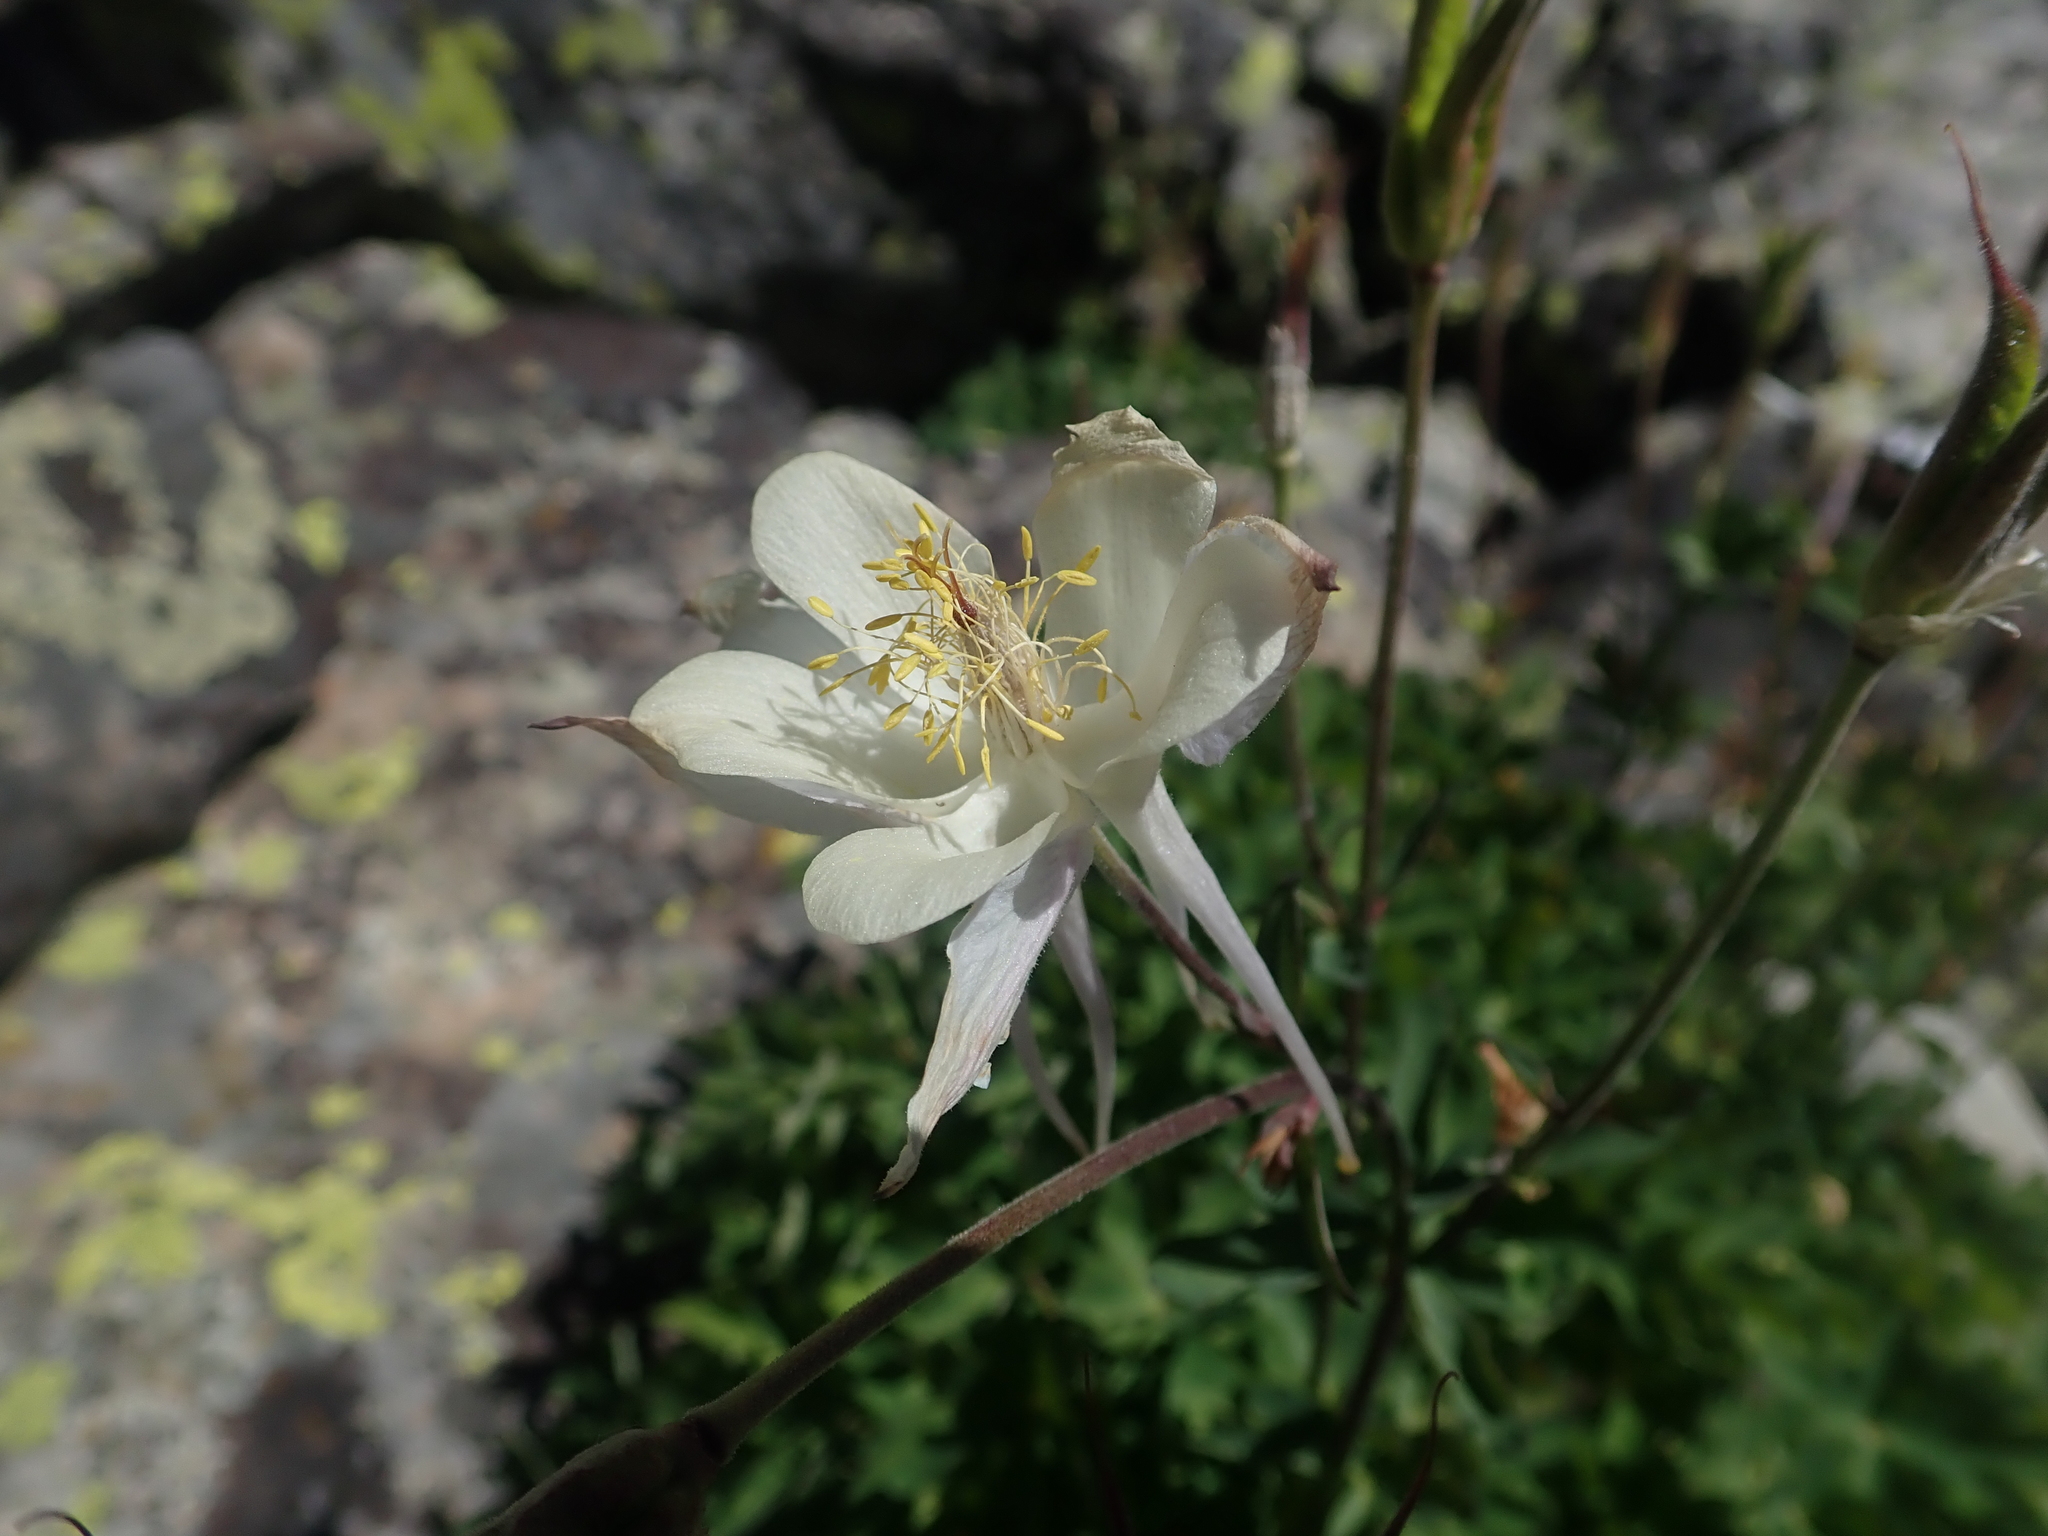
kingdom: Plantae
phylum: Tracheophyta
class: Magnoliopsida
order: Ranunculales
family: Ranunculaceae
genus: Aquilegia
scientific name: Aquilegia coerulea
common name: Rocky mountain columbine
